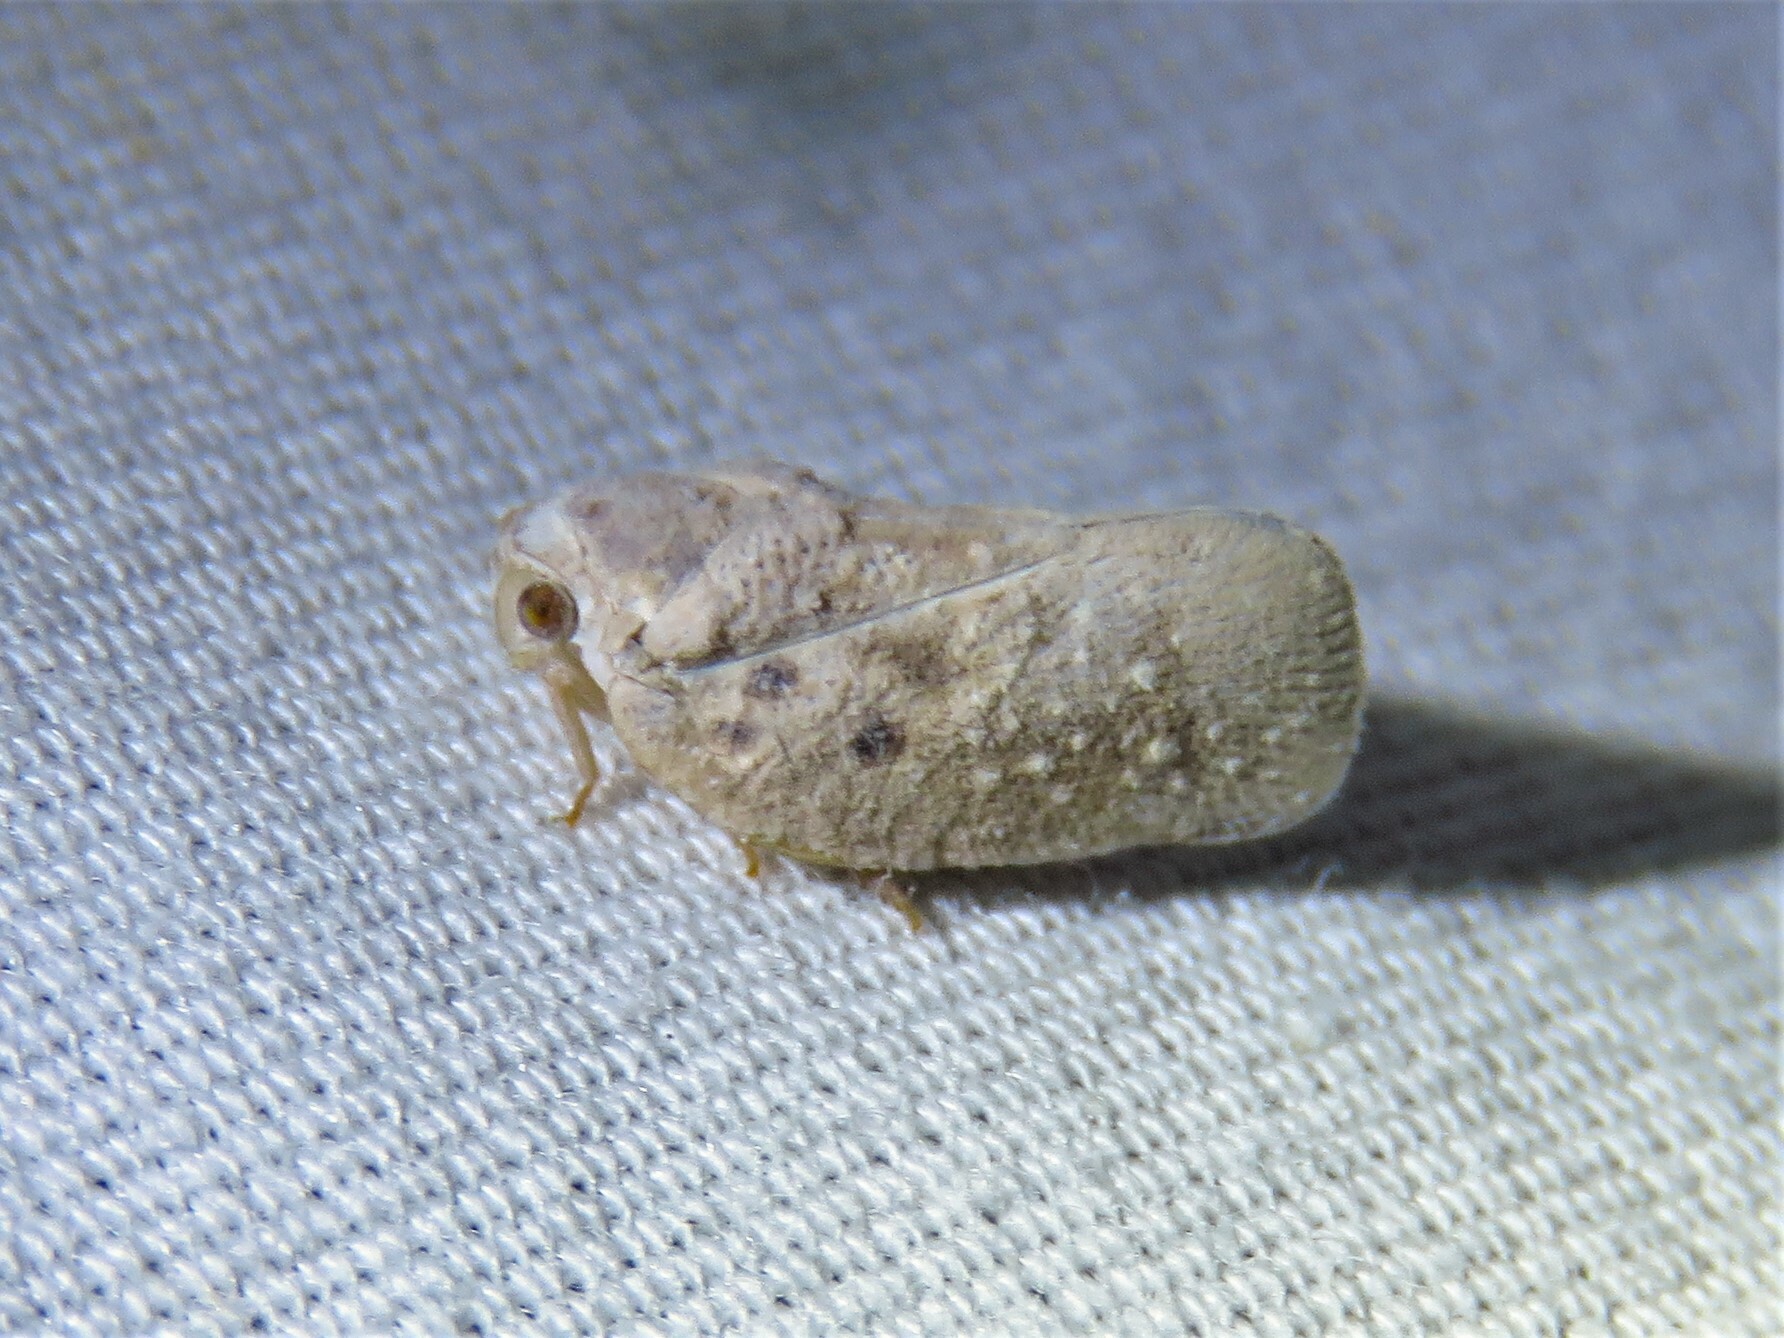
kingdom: Animalia
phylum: Arthropoda
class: Insecta
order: Hemiptera
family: Flatidae
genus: Metcalfa
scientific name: Metcalfa pruinosa
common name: Citrus flatid planthopper
